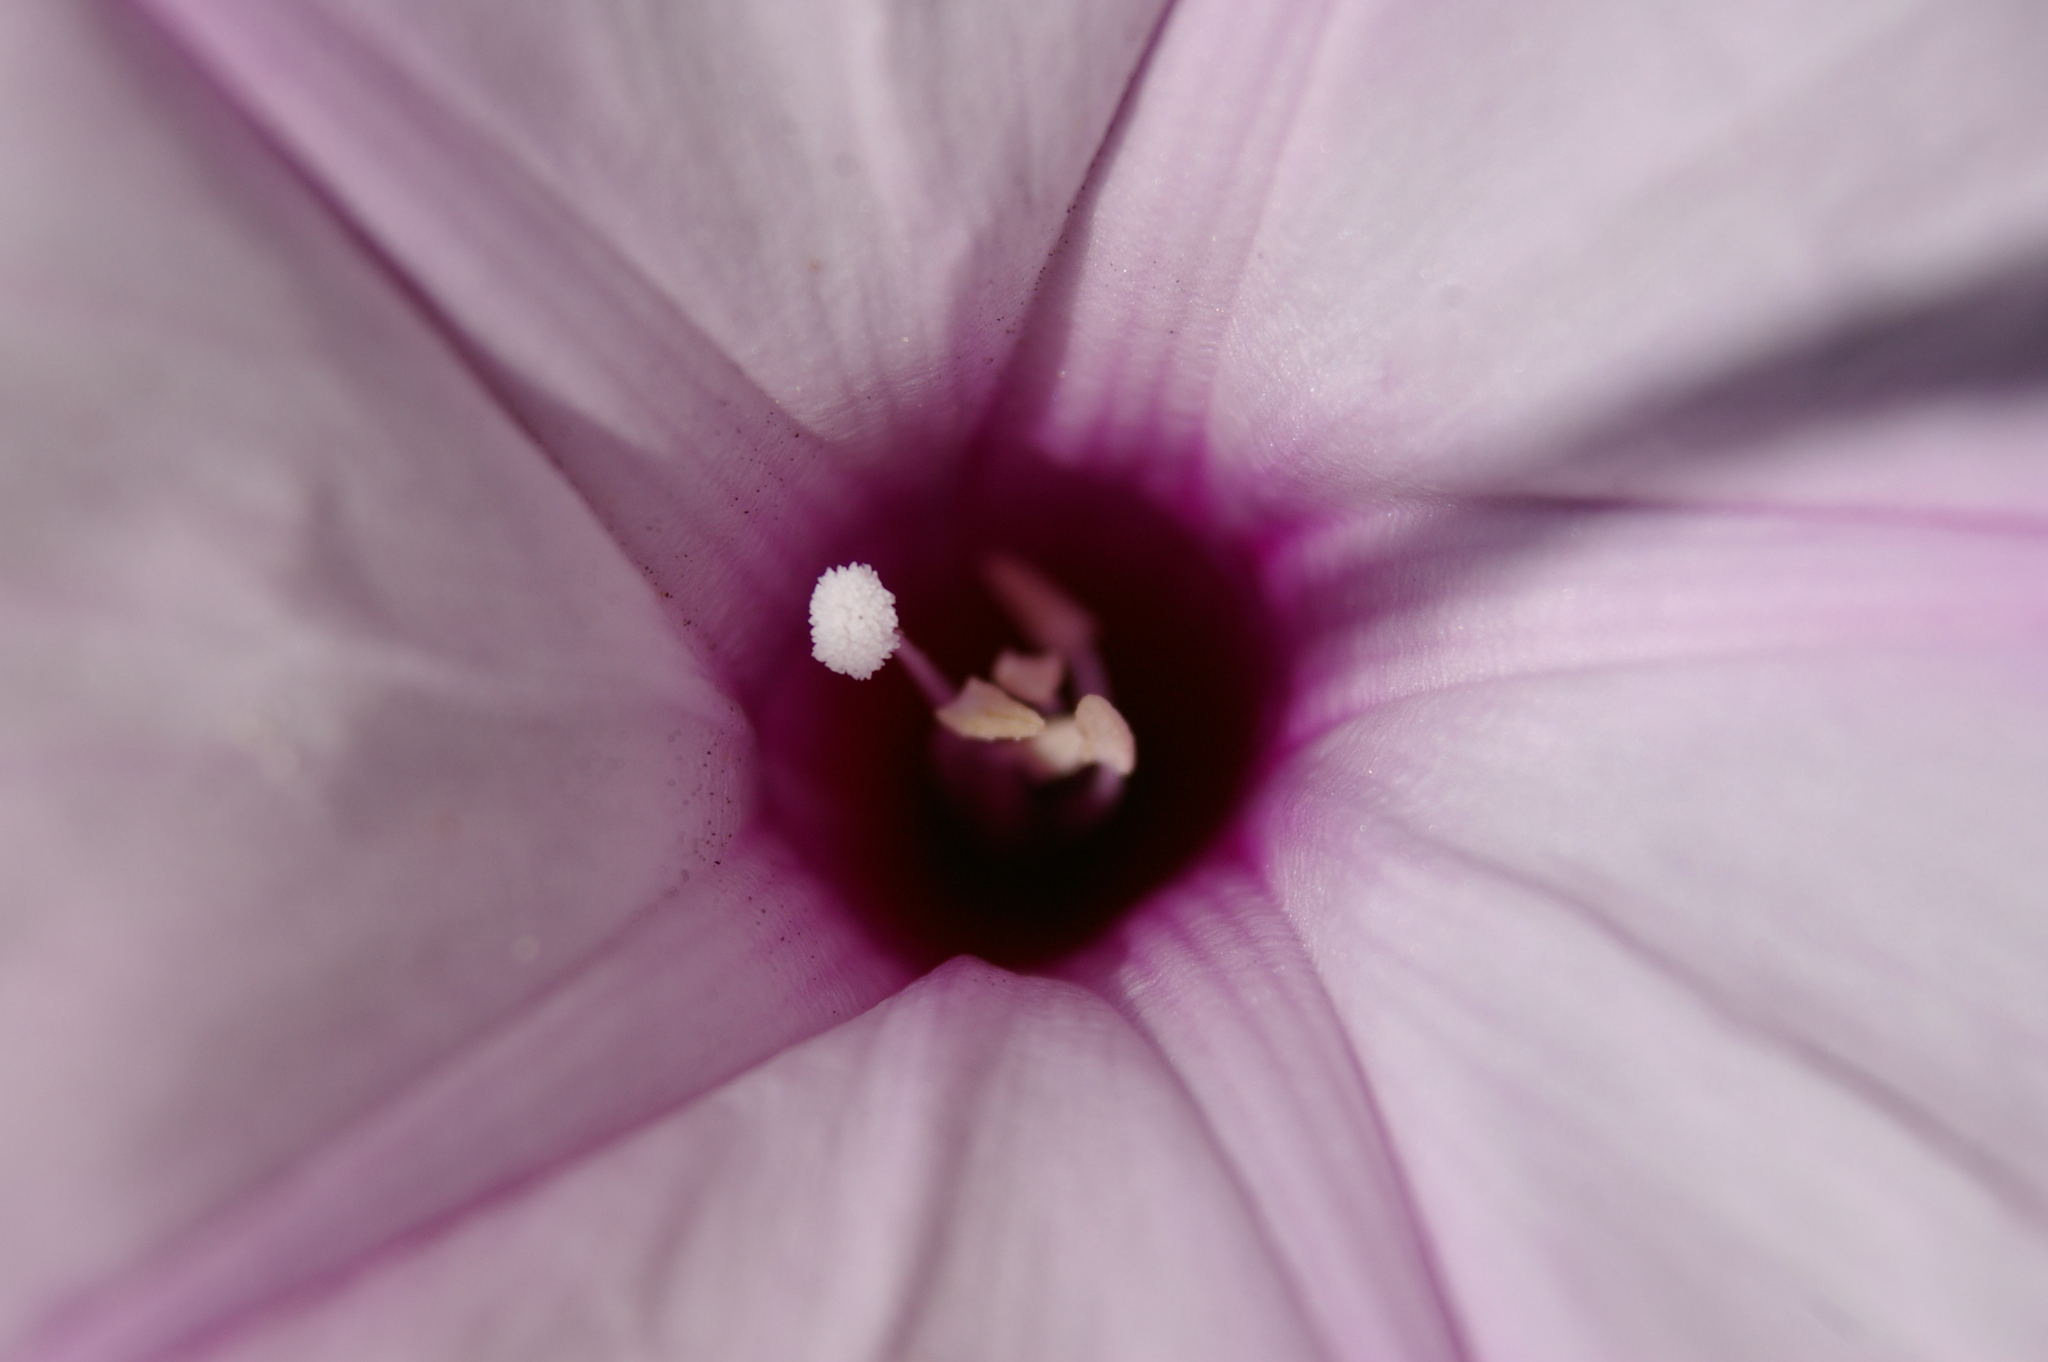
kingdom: Plantae
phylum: Tracheophyta
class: Magnoliopsida
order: Solanales
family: Convolvulaceae
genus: Stictocardia
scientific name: Stictocardia tiliifolia
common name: Spottedheart
